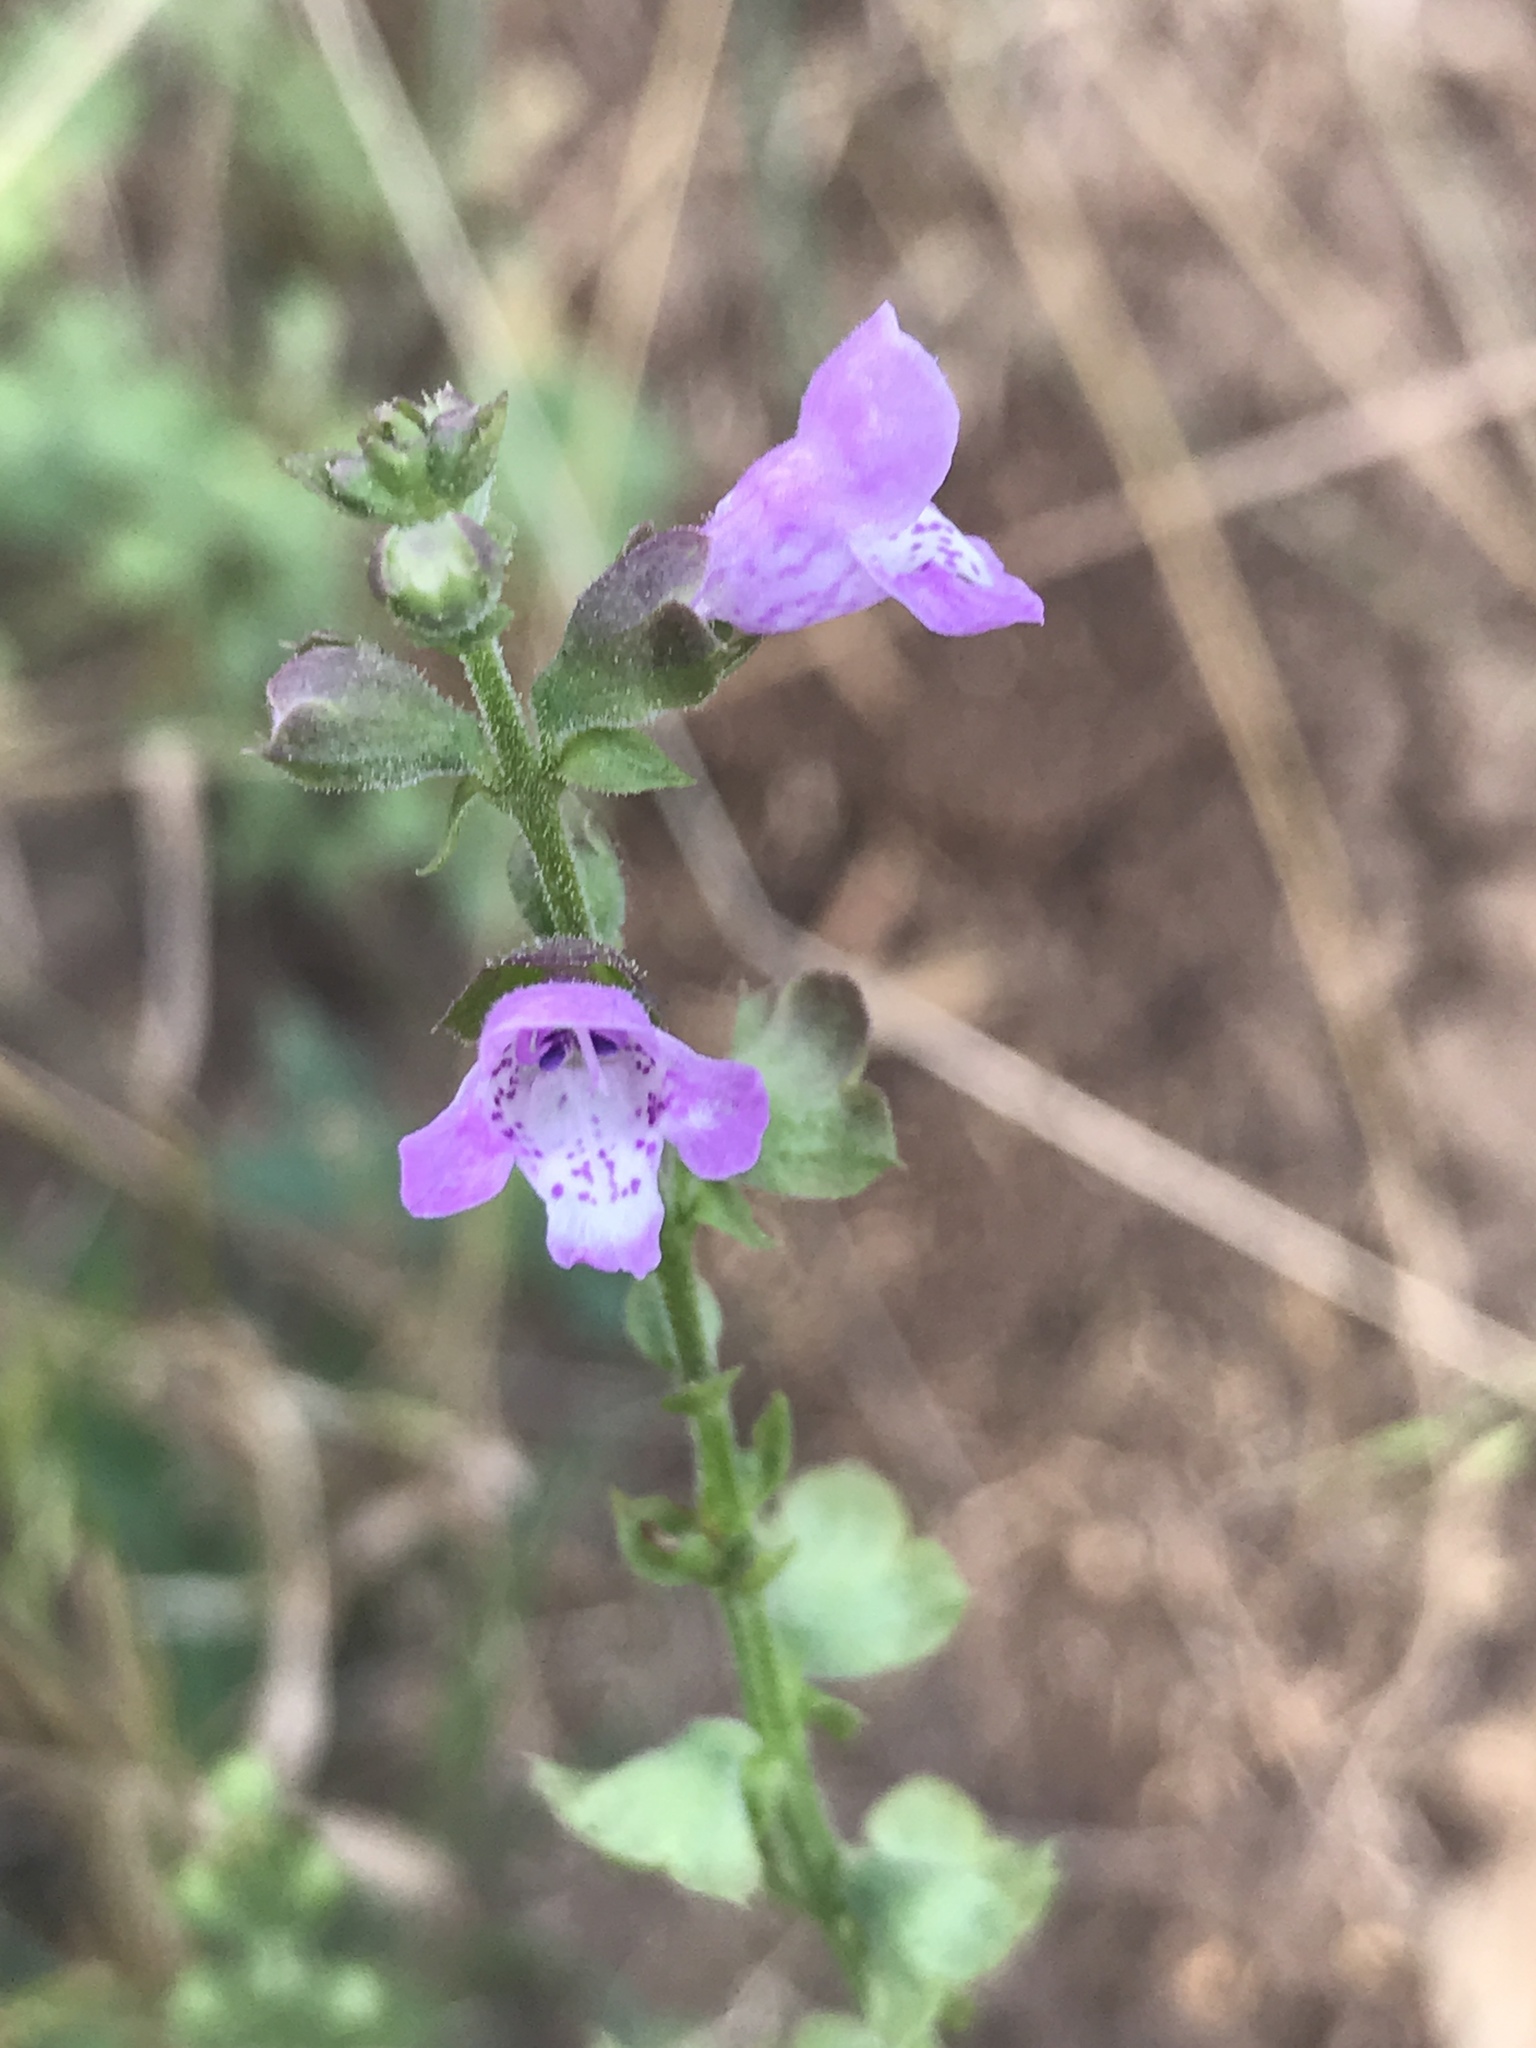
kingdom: Plantae
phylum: Tracheophyta
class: Magnoliopsida
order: Lamiales
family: Lamiaceae
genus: Warnockia
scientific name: Warnockia scutellarioides
